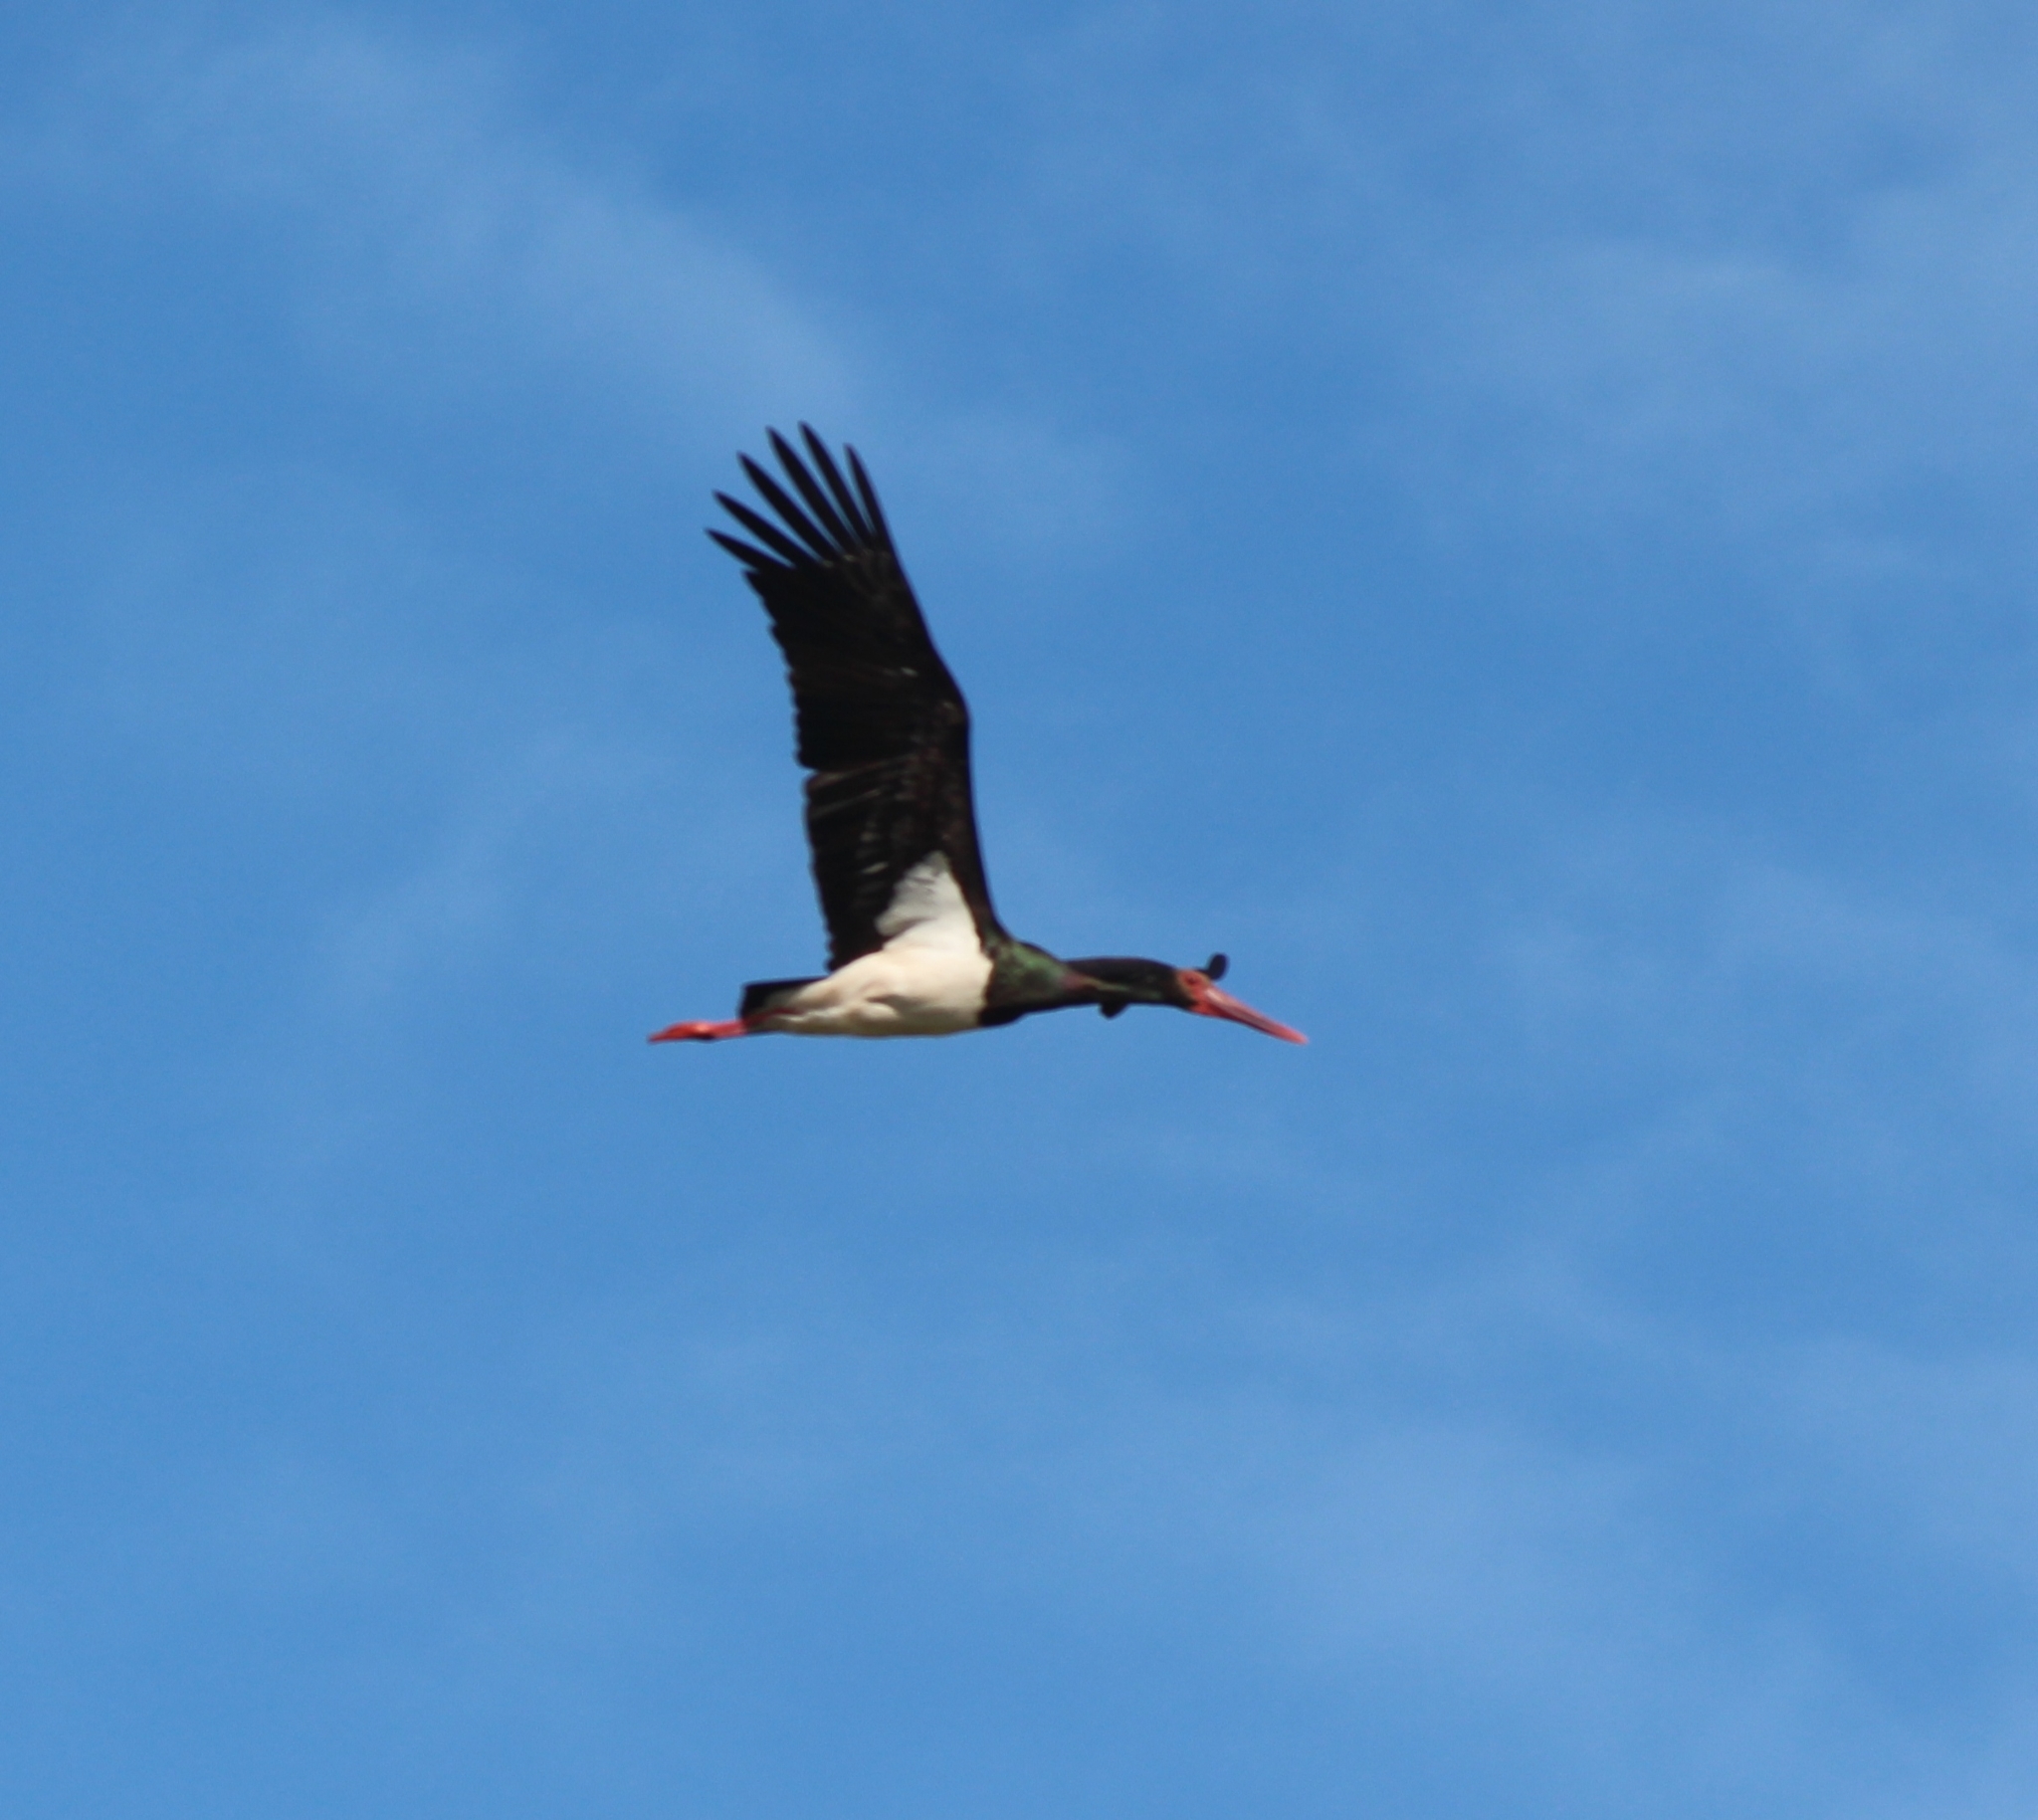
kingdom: Animalia
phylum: Chordata
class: Aves
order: Ciconiiformes
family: Ciconiidae
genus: Ciconia
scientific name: Ciconia nigra
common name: Black stork
